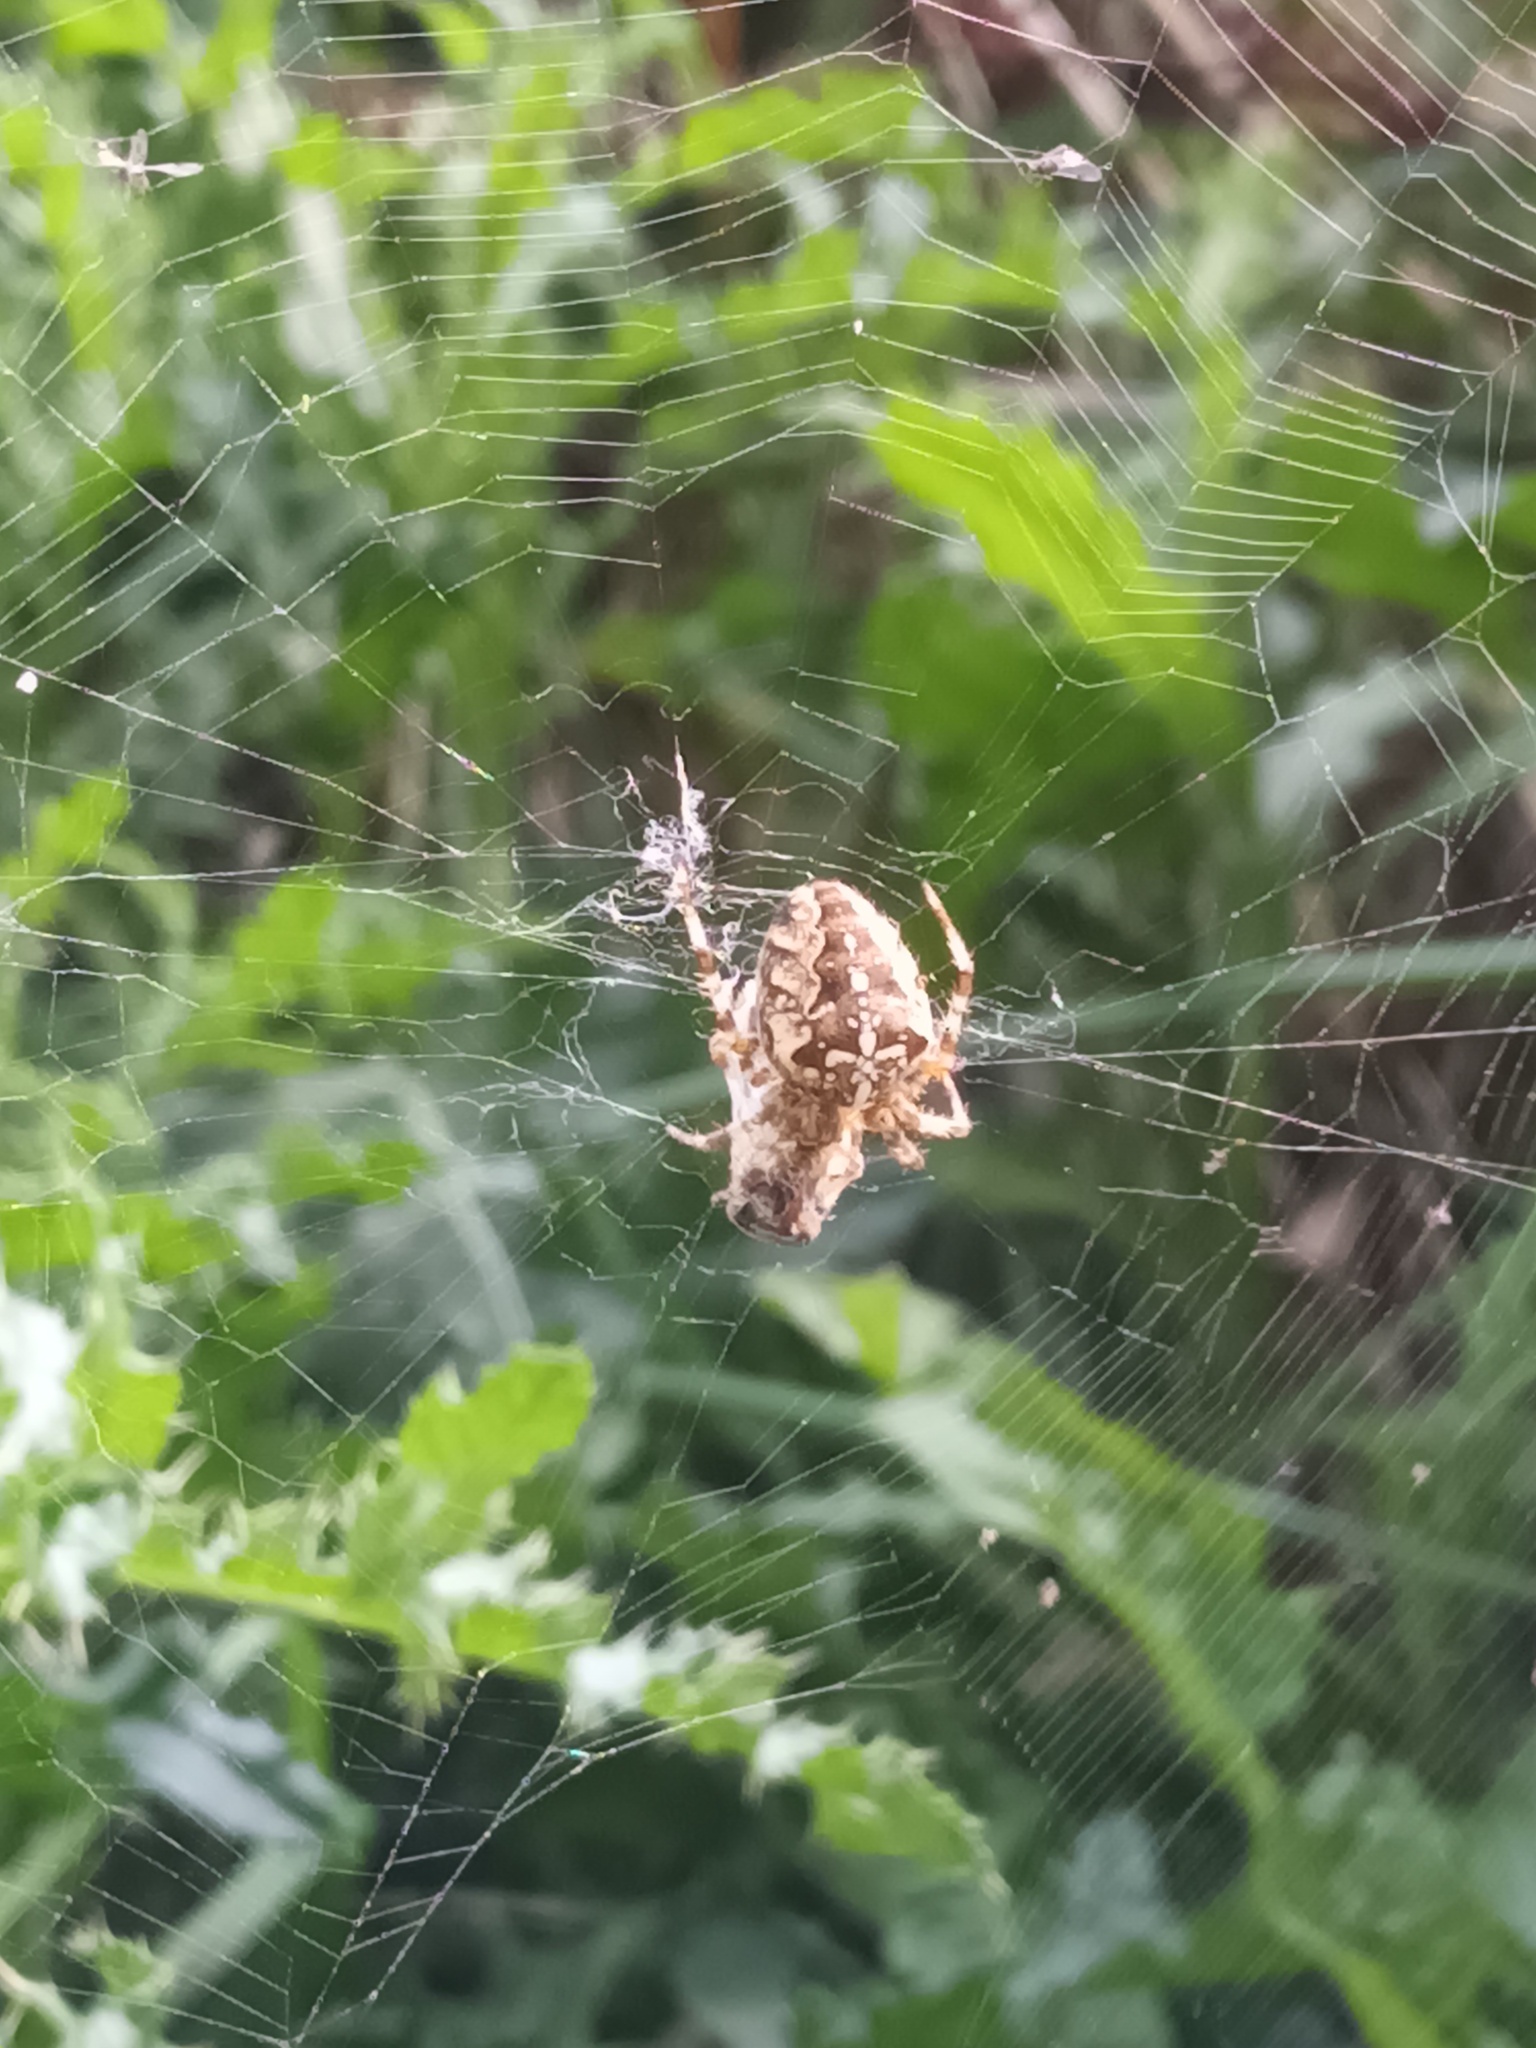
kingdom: Animalia
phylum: Arthropoda
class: Arachnida
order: Araneae
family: Araneidae
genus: Araneus
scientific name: Araneus diadematus
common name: Cross orbweaver
